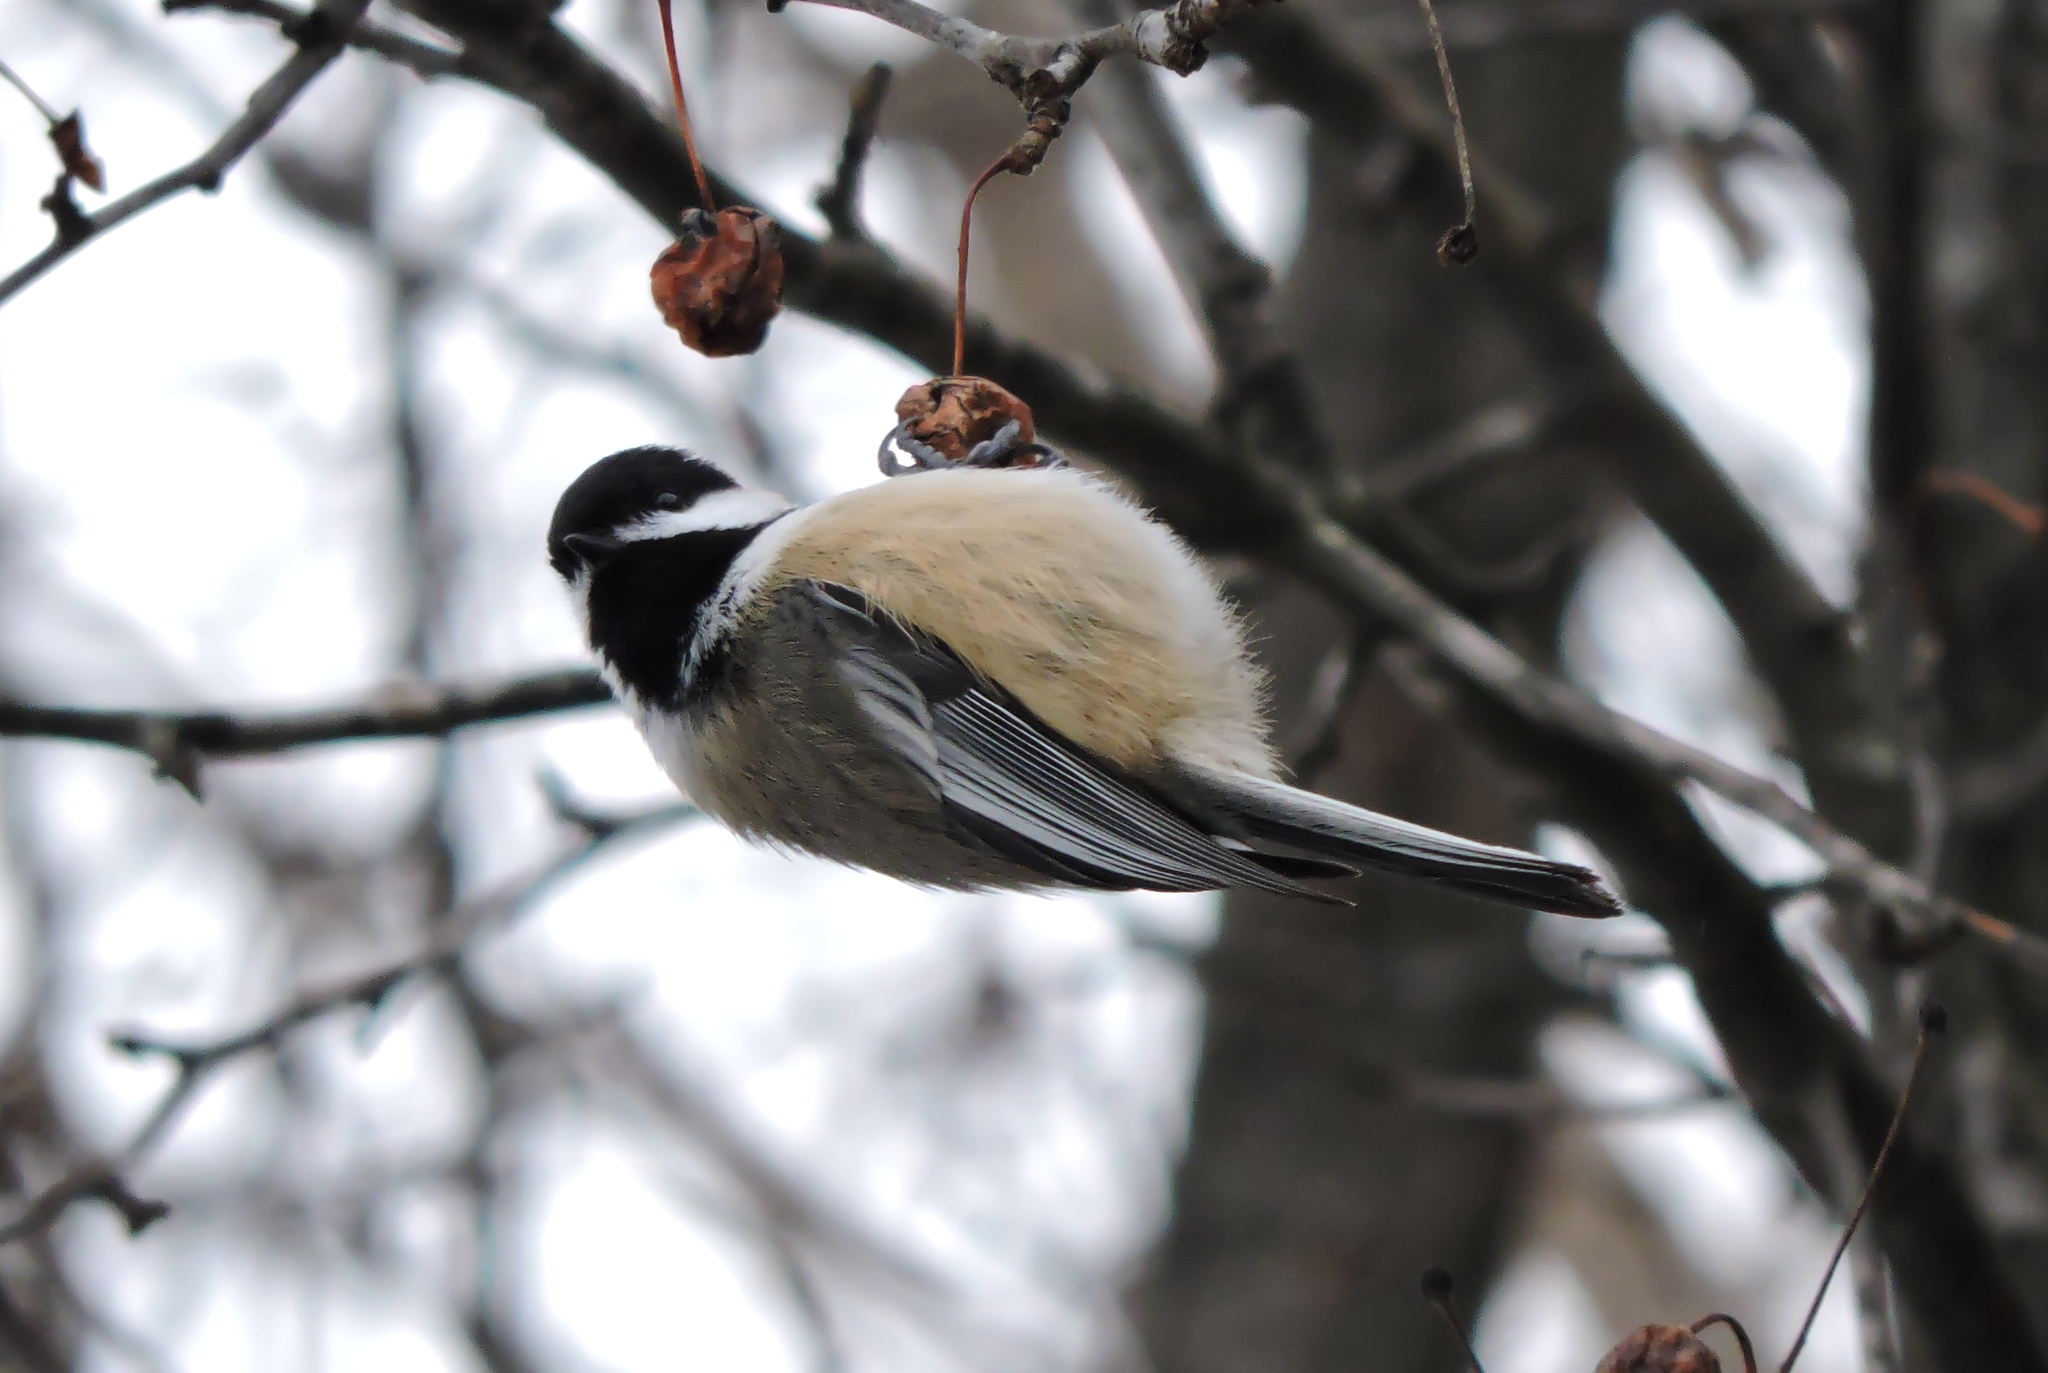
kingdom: Animalia
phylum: Chordata
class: Aves
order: Passeriformes
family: Paridae
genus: Poecile
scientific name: Poecile atricapillus
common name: Black-capped chickadee
